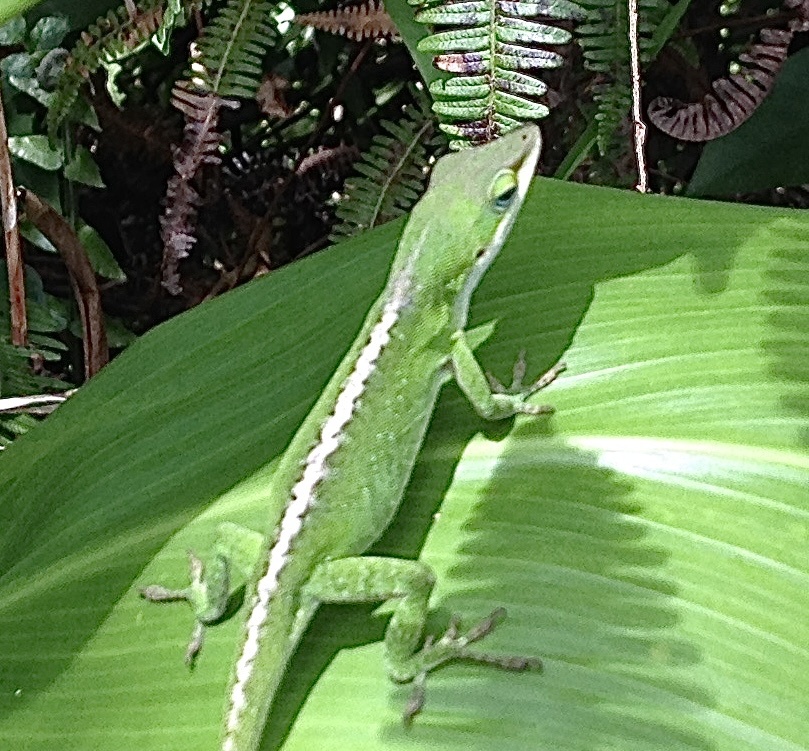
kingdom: Animalia
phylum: Chordata
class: Squamata
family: Dactyloidae
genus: Anolis
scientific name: Anolis carolinensis
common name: Green anole
